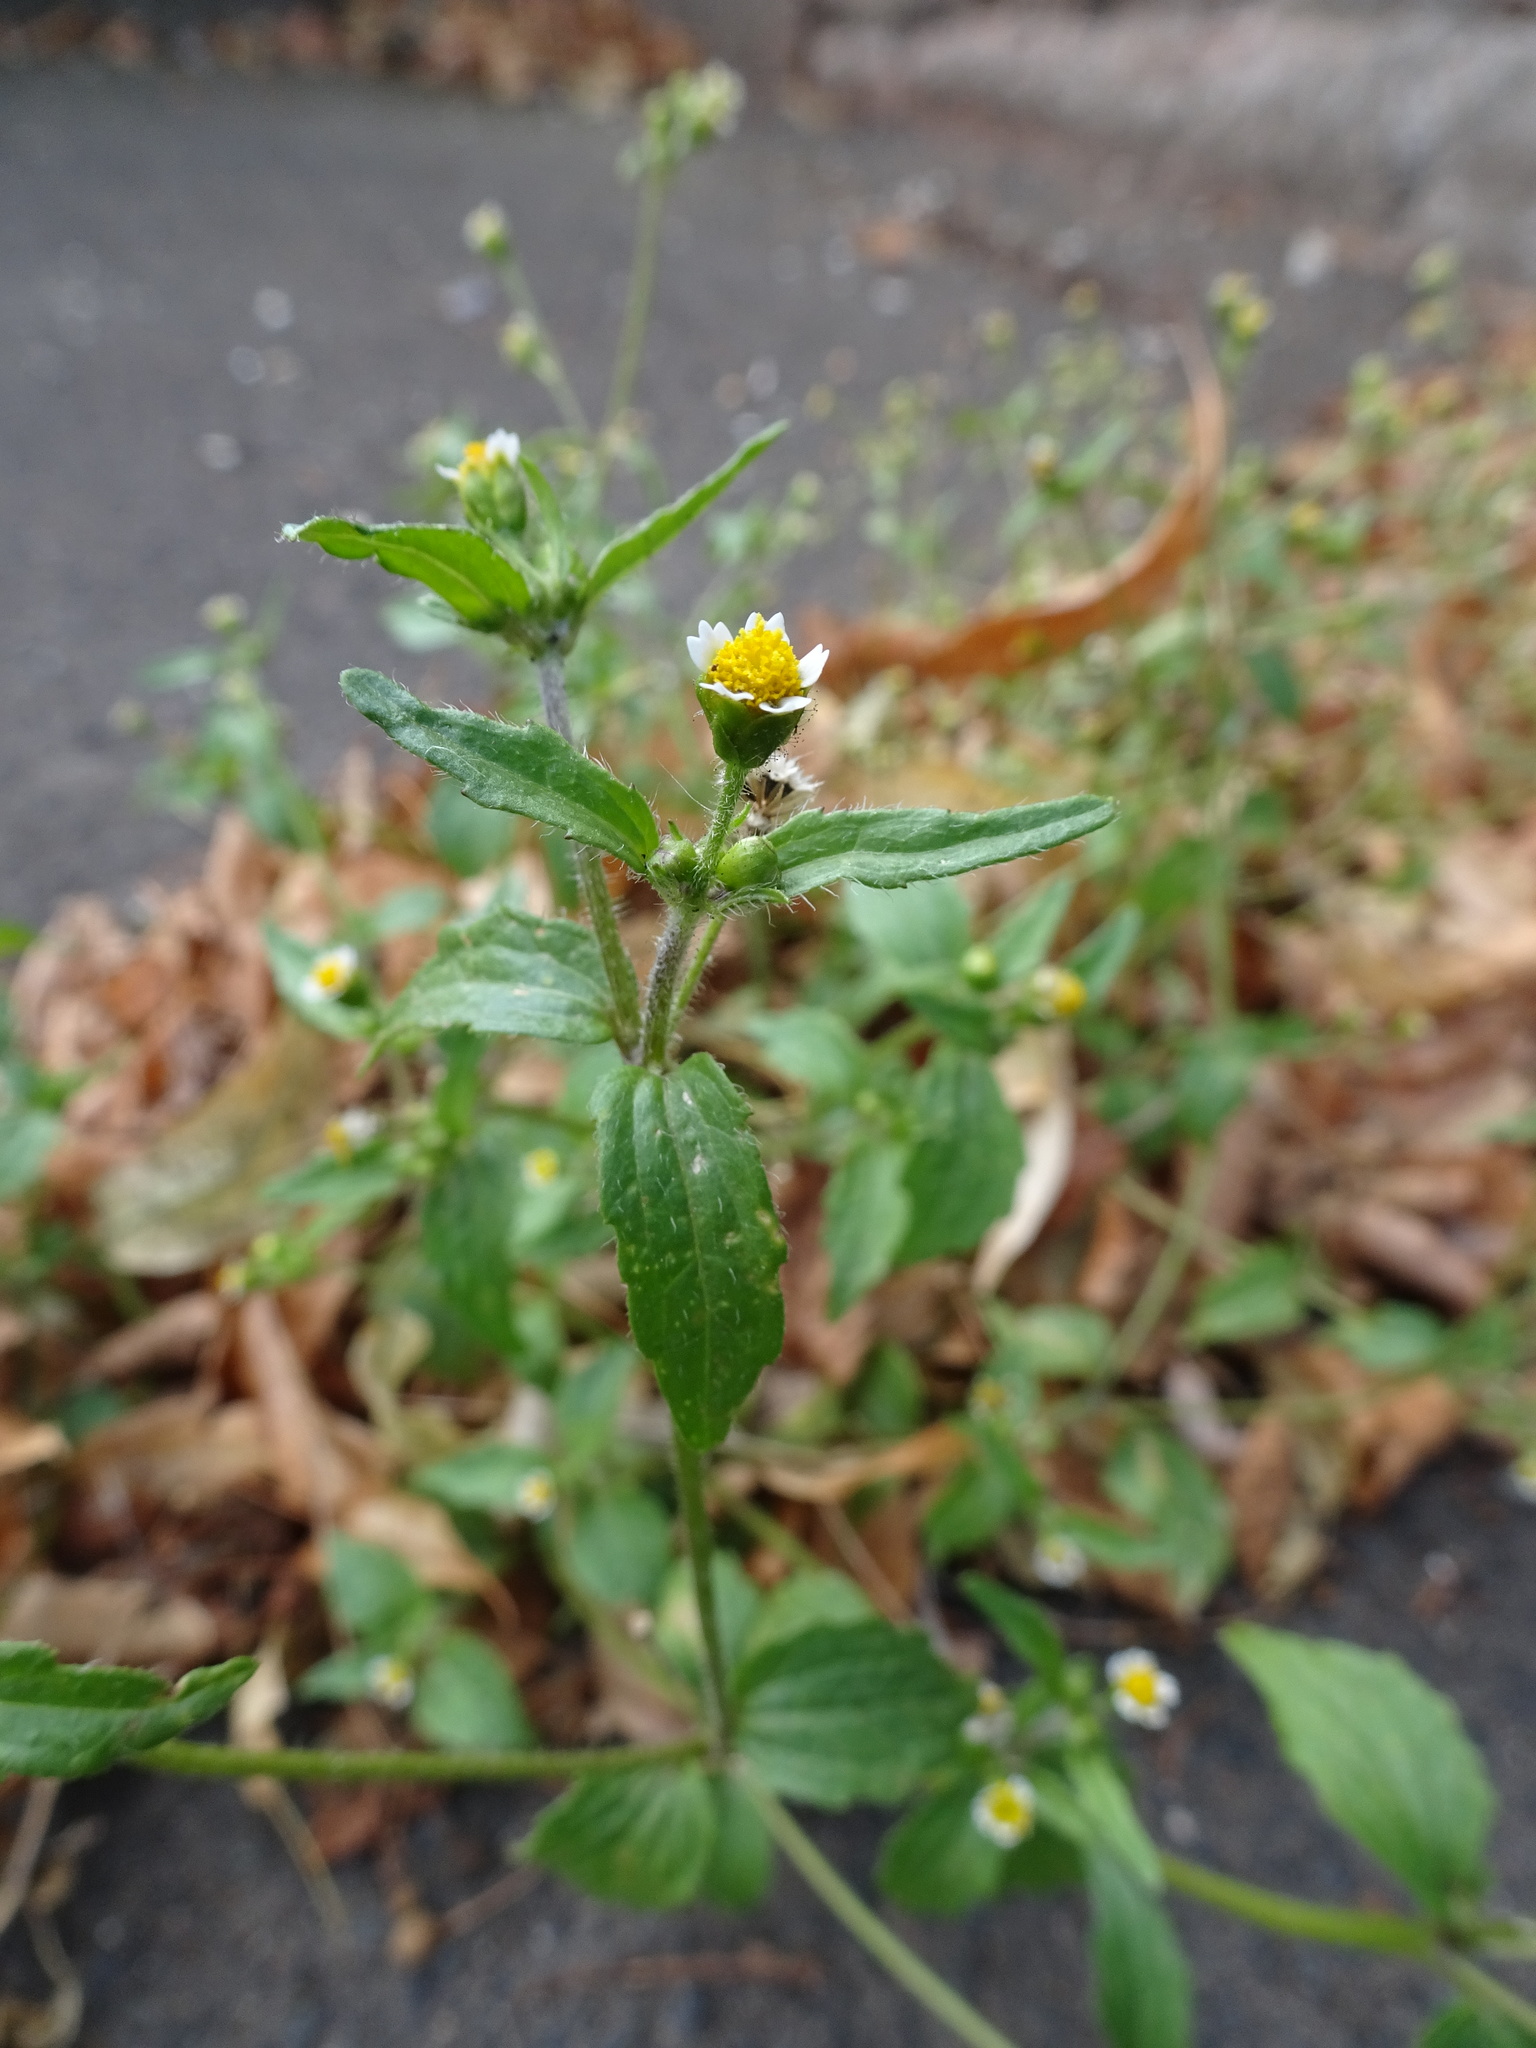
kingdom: Plantae
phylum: Tracheophyta
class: Magnoliopsida
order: Asterales
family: Asteraceae
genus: Galinsoga
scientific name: Galinsoga quadriradiata
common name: Shaggy soldier
